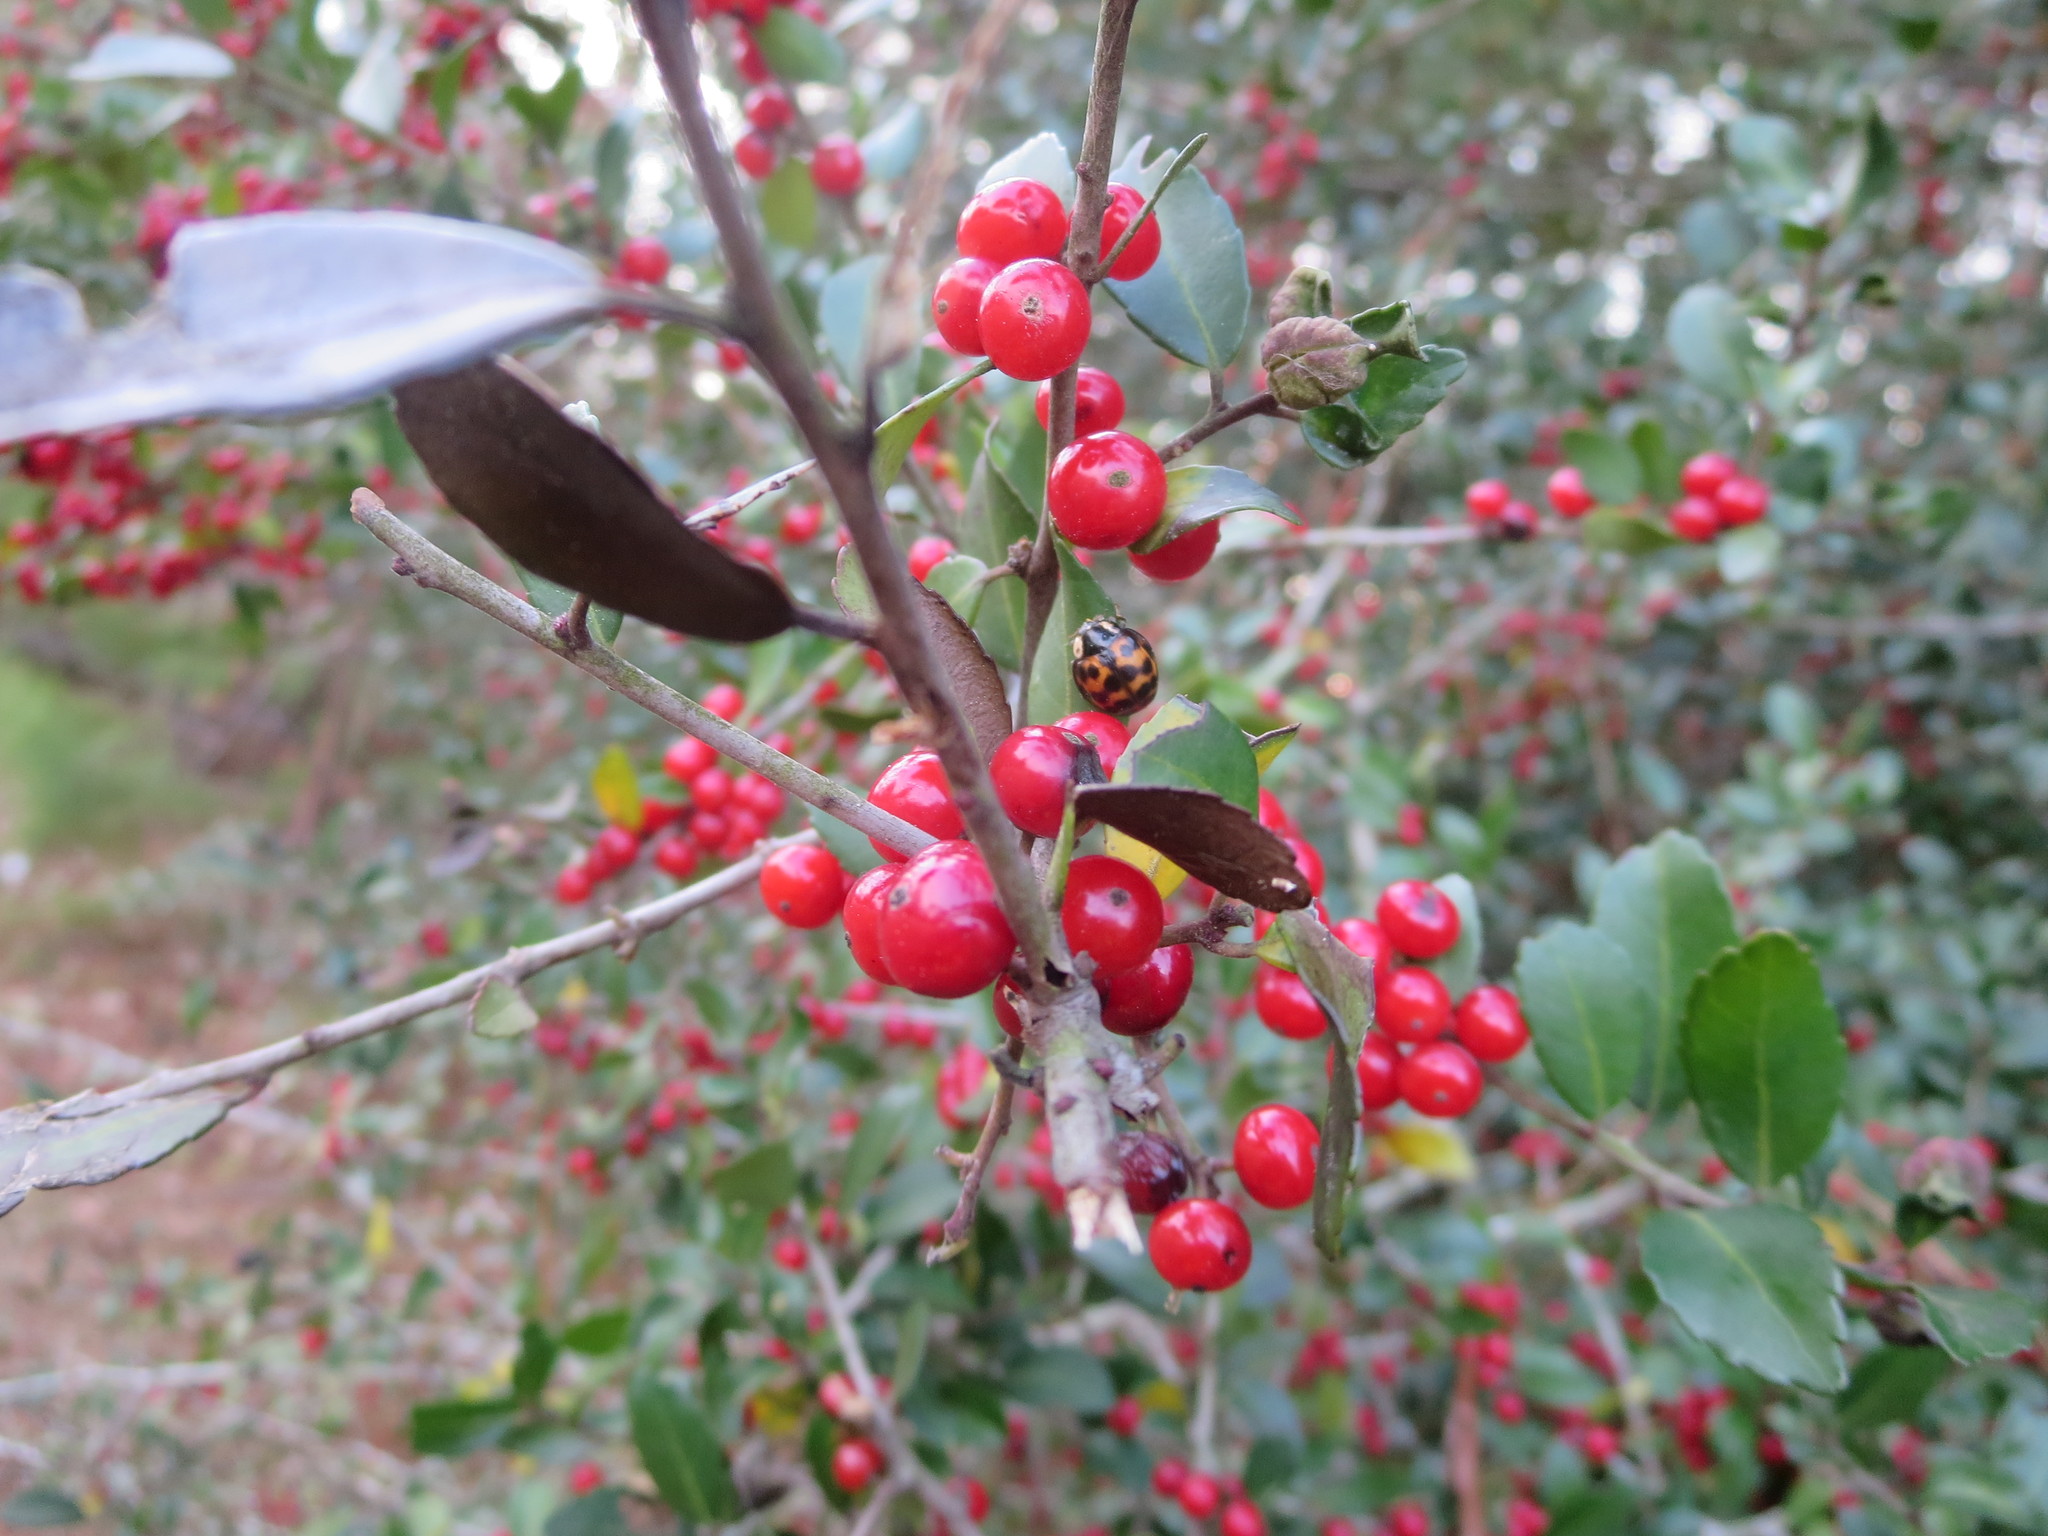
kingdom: Animalia
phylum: Arthropoda
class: Insecta
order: Coleoptera
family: Coccinellidae
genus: Harmonia
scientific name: Harmonia axyridis
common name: Harlequin ladybird
